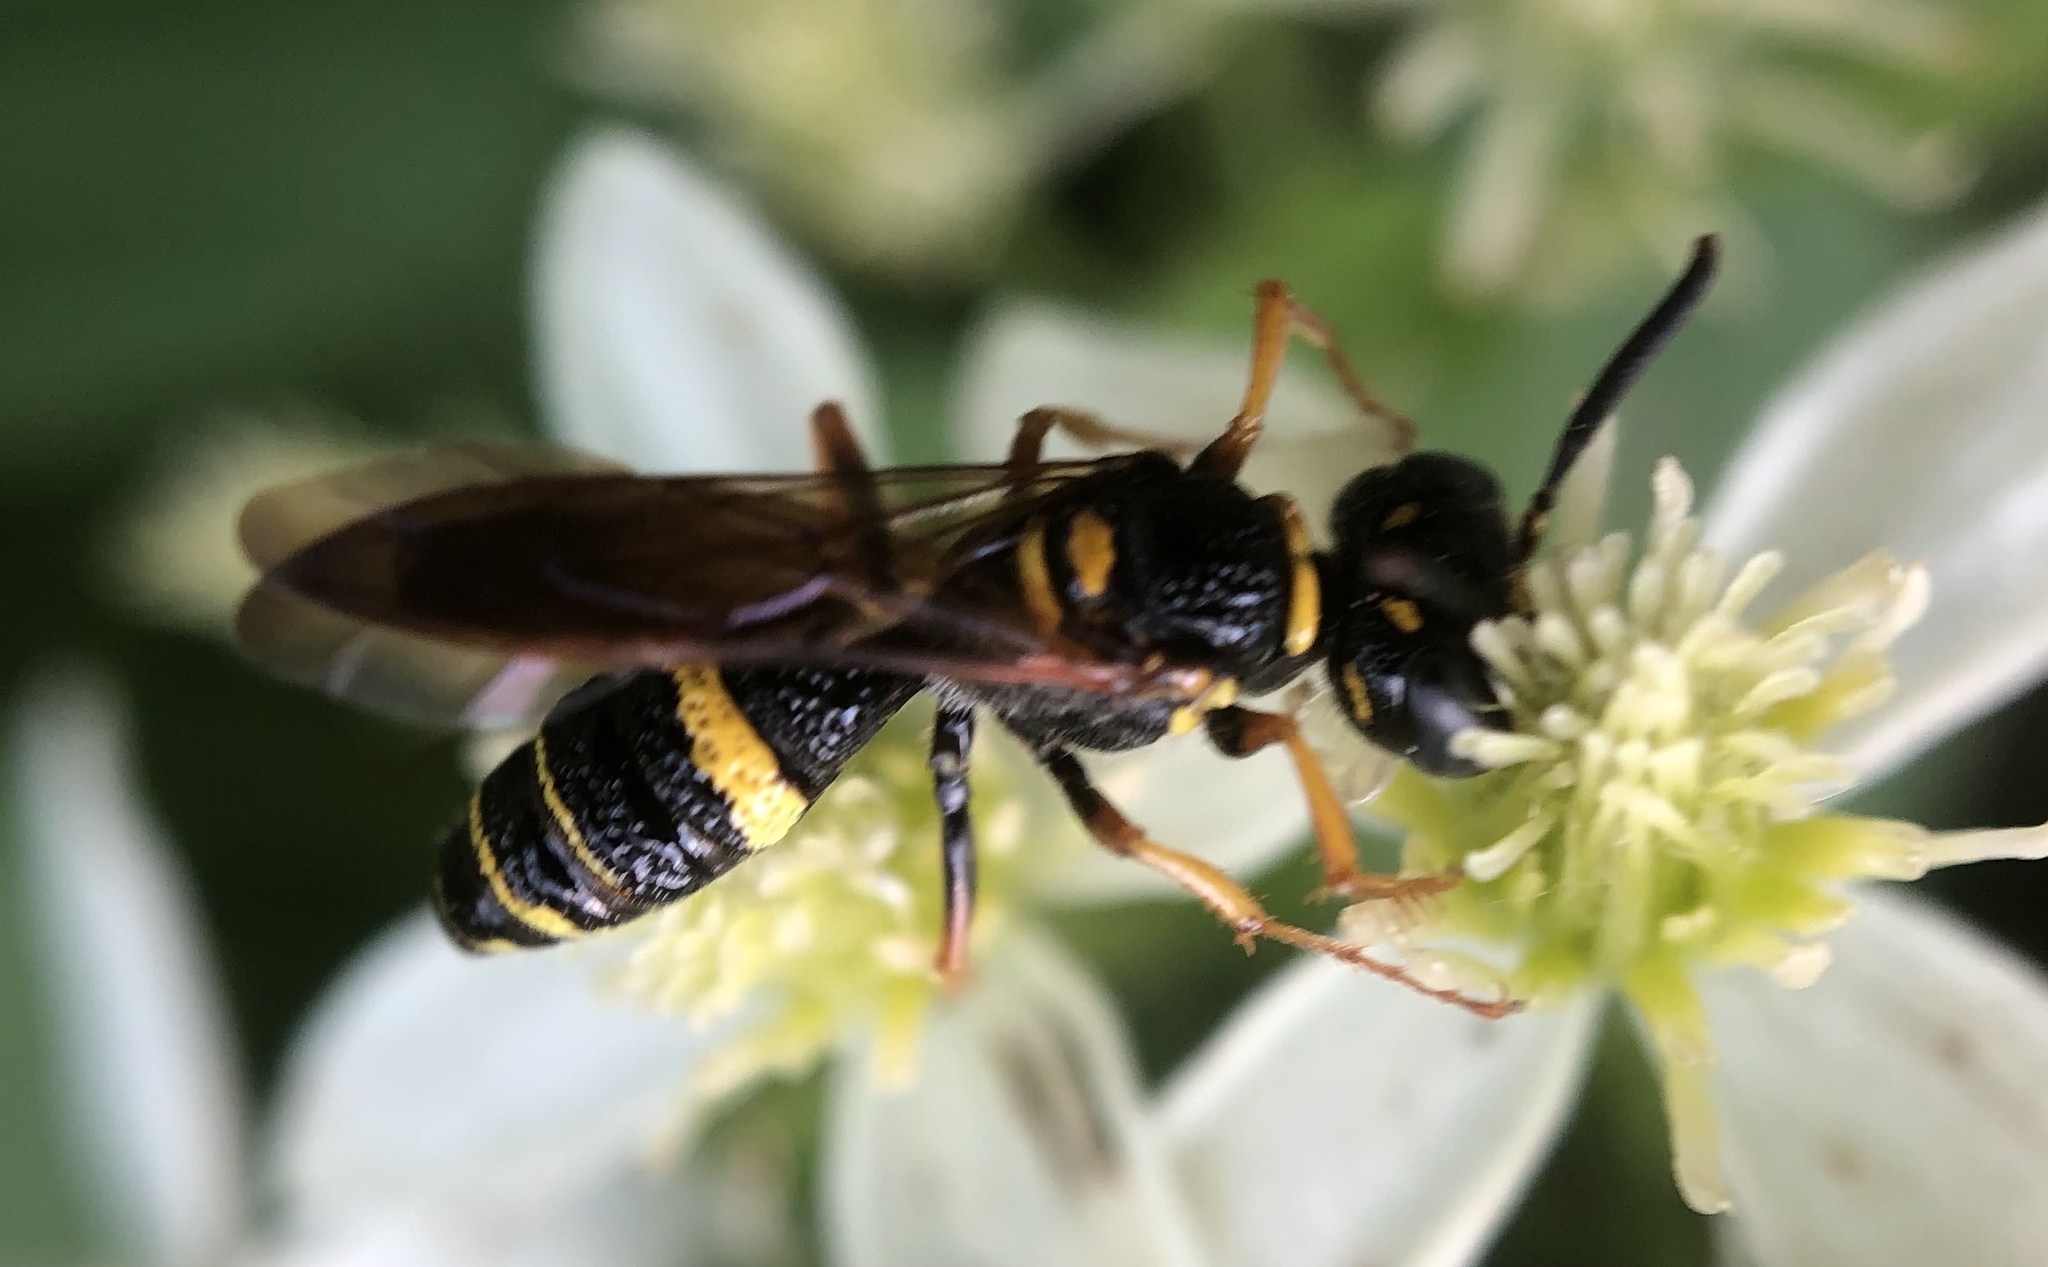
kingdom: Animalia
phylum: Arthropoda
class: Insecta
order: Hymenoptera
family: Crabronidae
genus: Philanthus
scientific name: Philanthus gibbosus
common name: Humped beewolf
